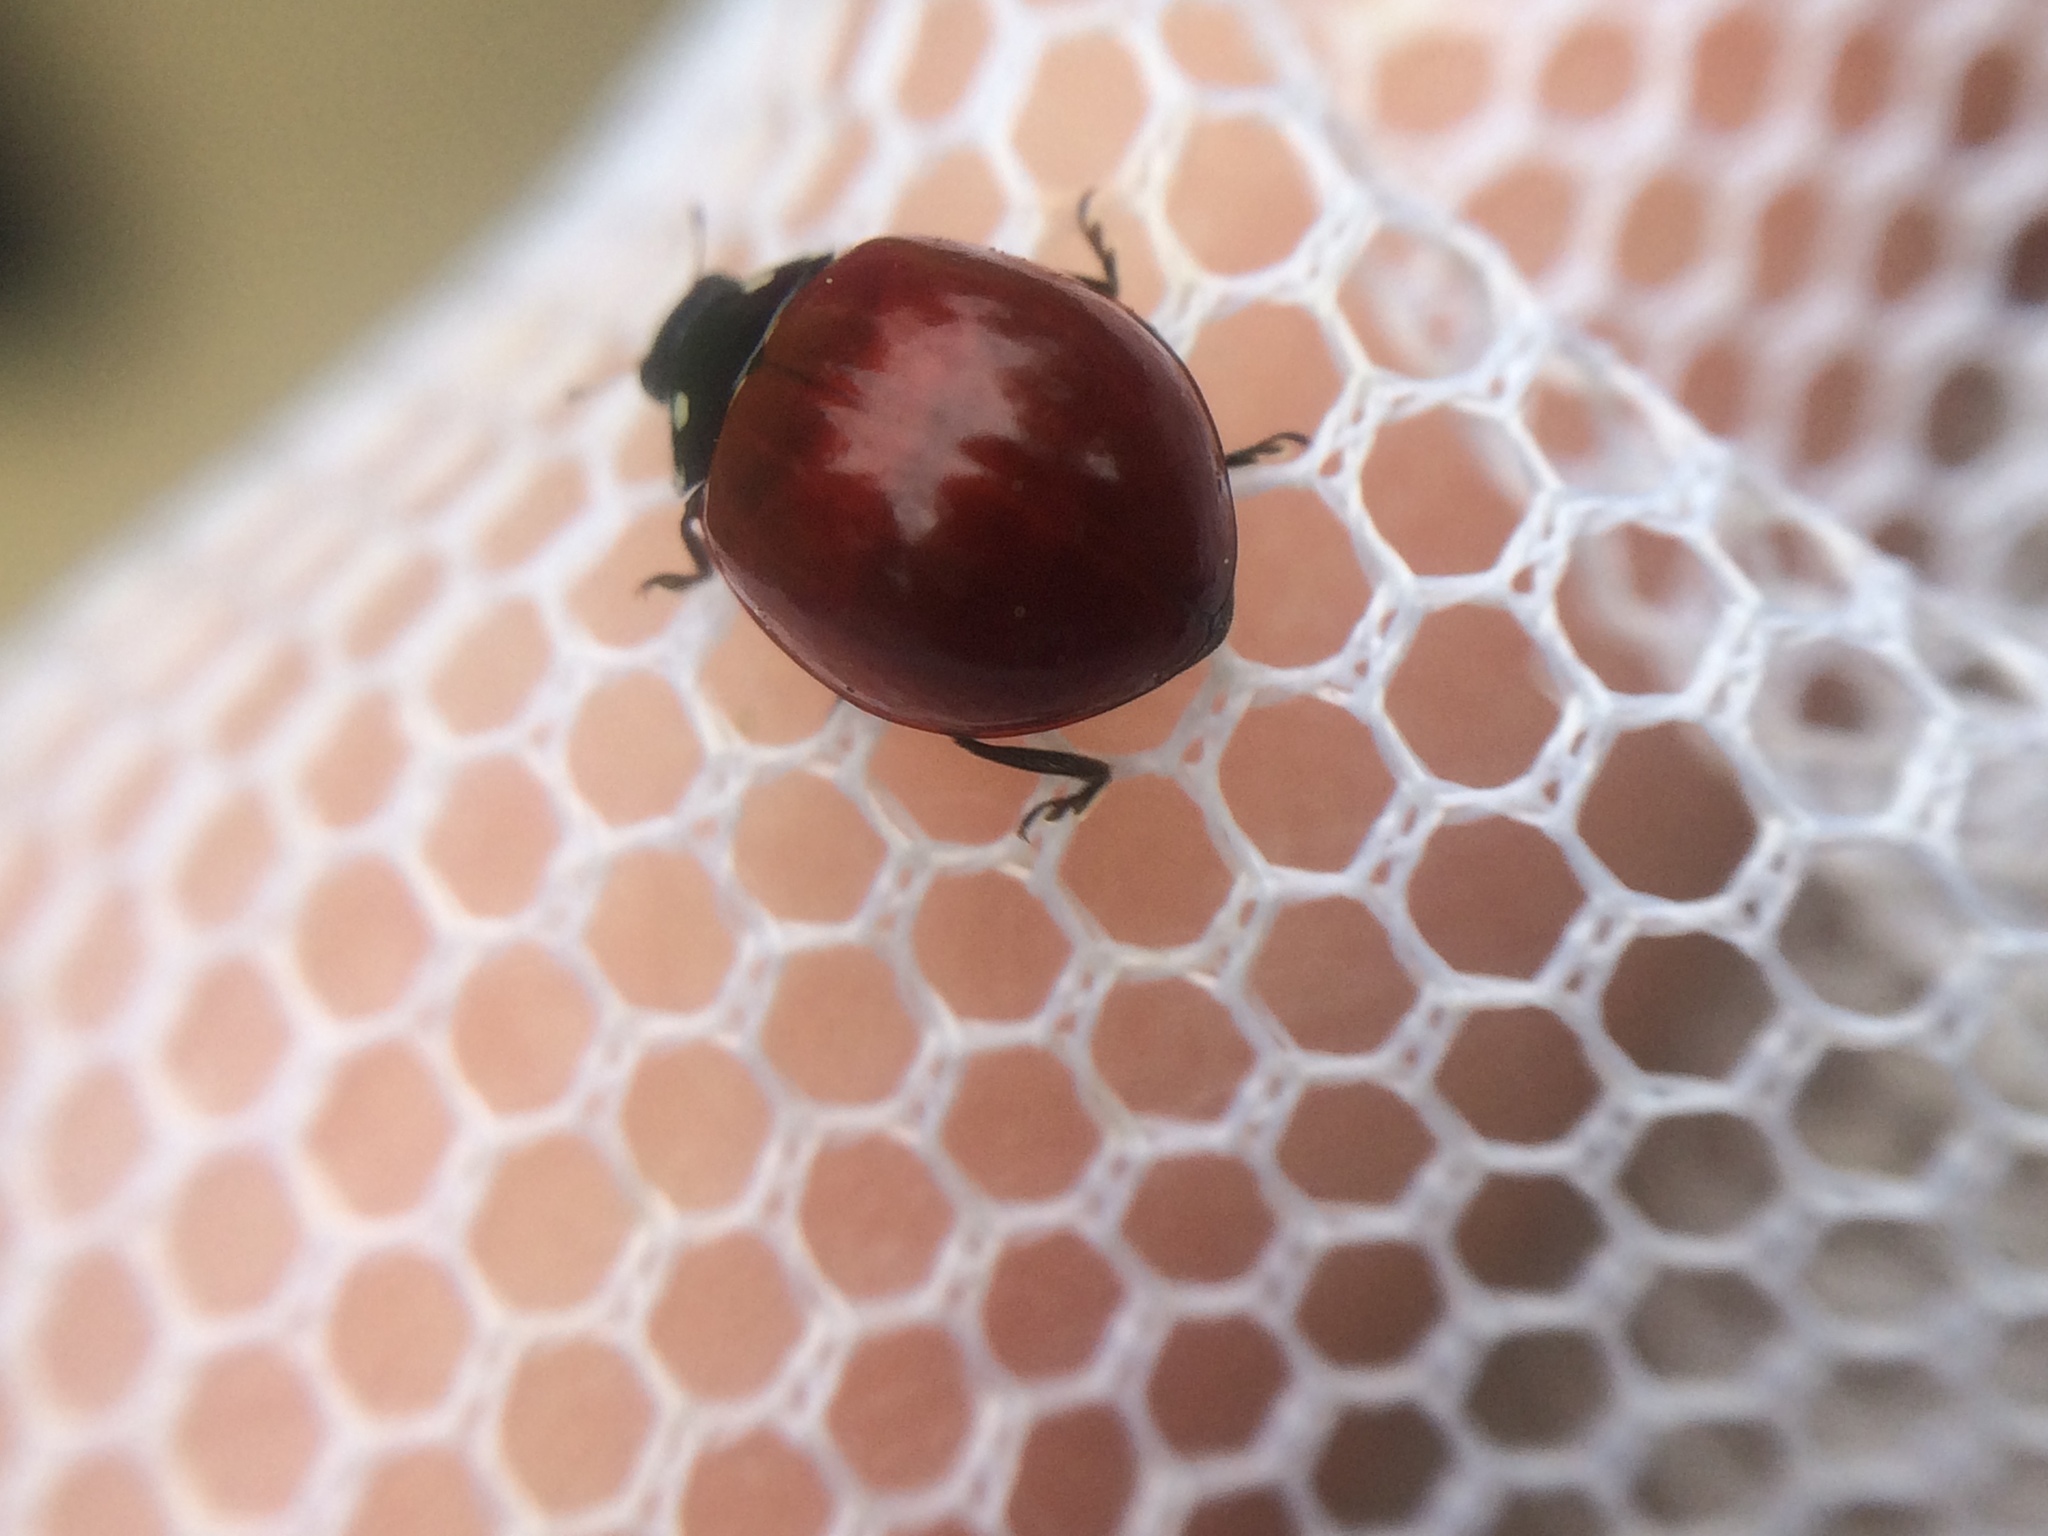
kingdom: Animalia
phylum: Arthropoda
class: Insecta
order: Coleoptera
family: Coccinellidae
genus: Cycloneda
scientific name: Cycloneda sanguinea
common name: Ladybird beetle
